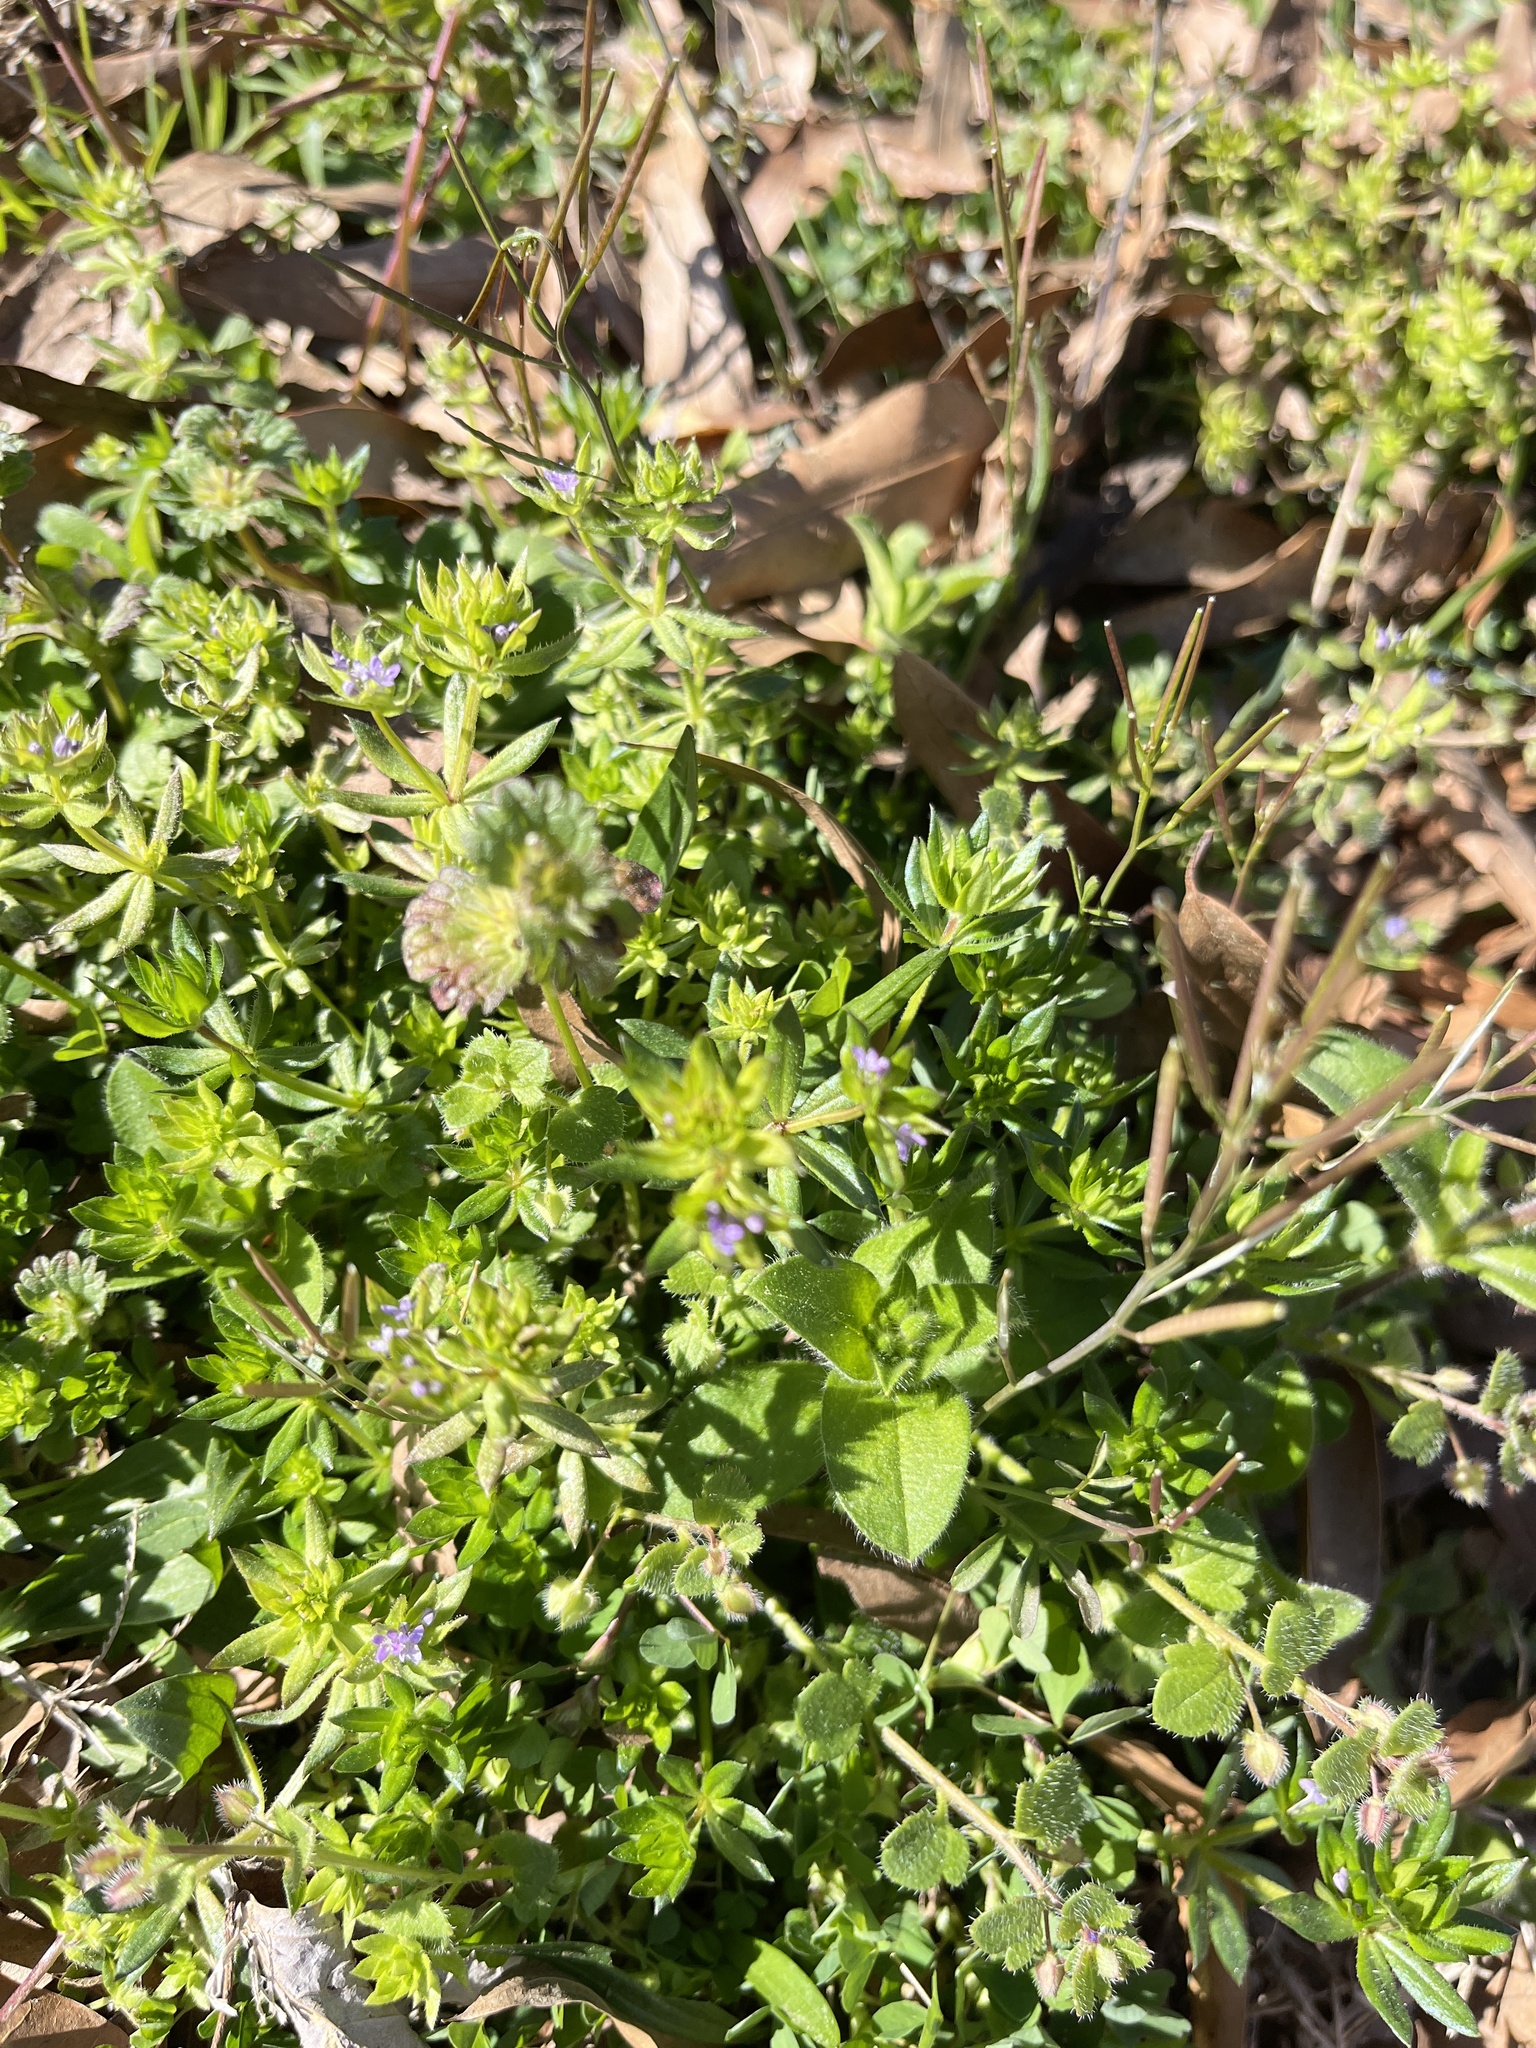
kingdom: Plantae
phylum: Tracheophyta
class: Magnoliopsida
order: Gentianales
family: Rubiaceae
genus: Sherardia
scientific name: Sherardia arvensis
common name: Field madder
